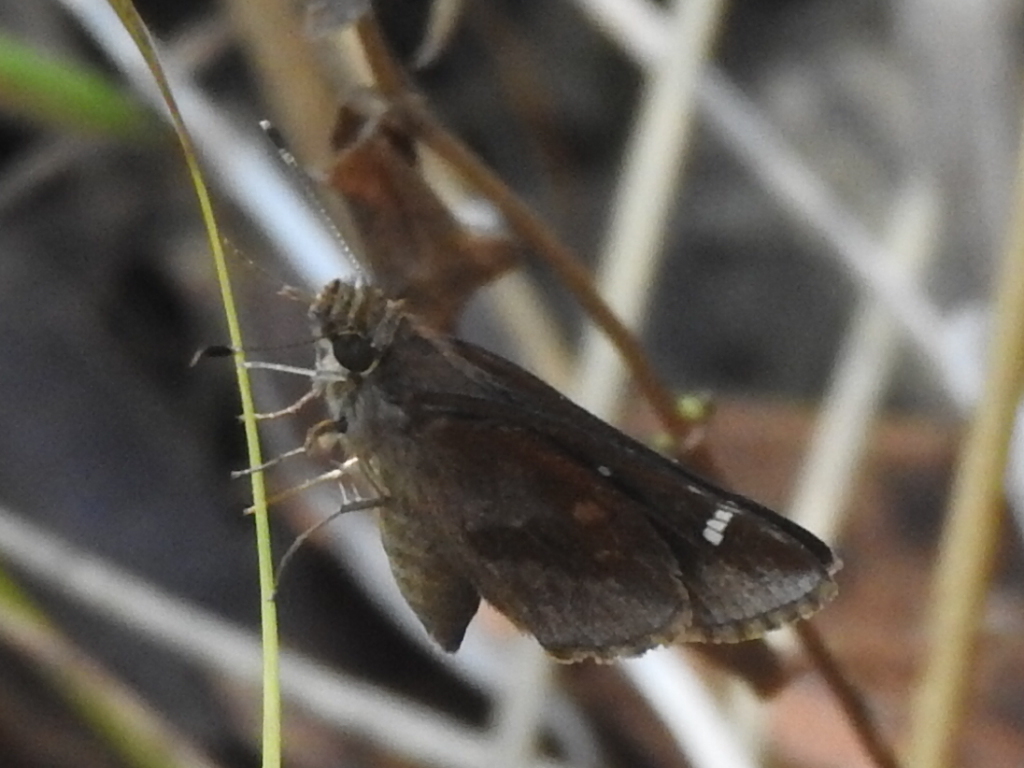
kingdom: Animalia
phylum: Arthropoda
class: Insecta
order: Lepidoptera
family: Hesperiidae
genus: Lerema
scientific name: Lerema accius
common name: Clouded skipper
